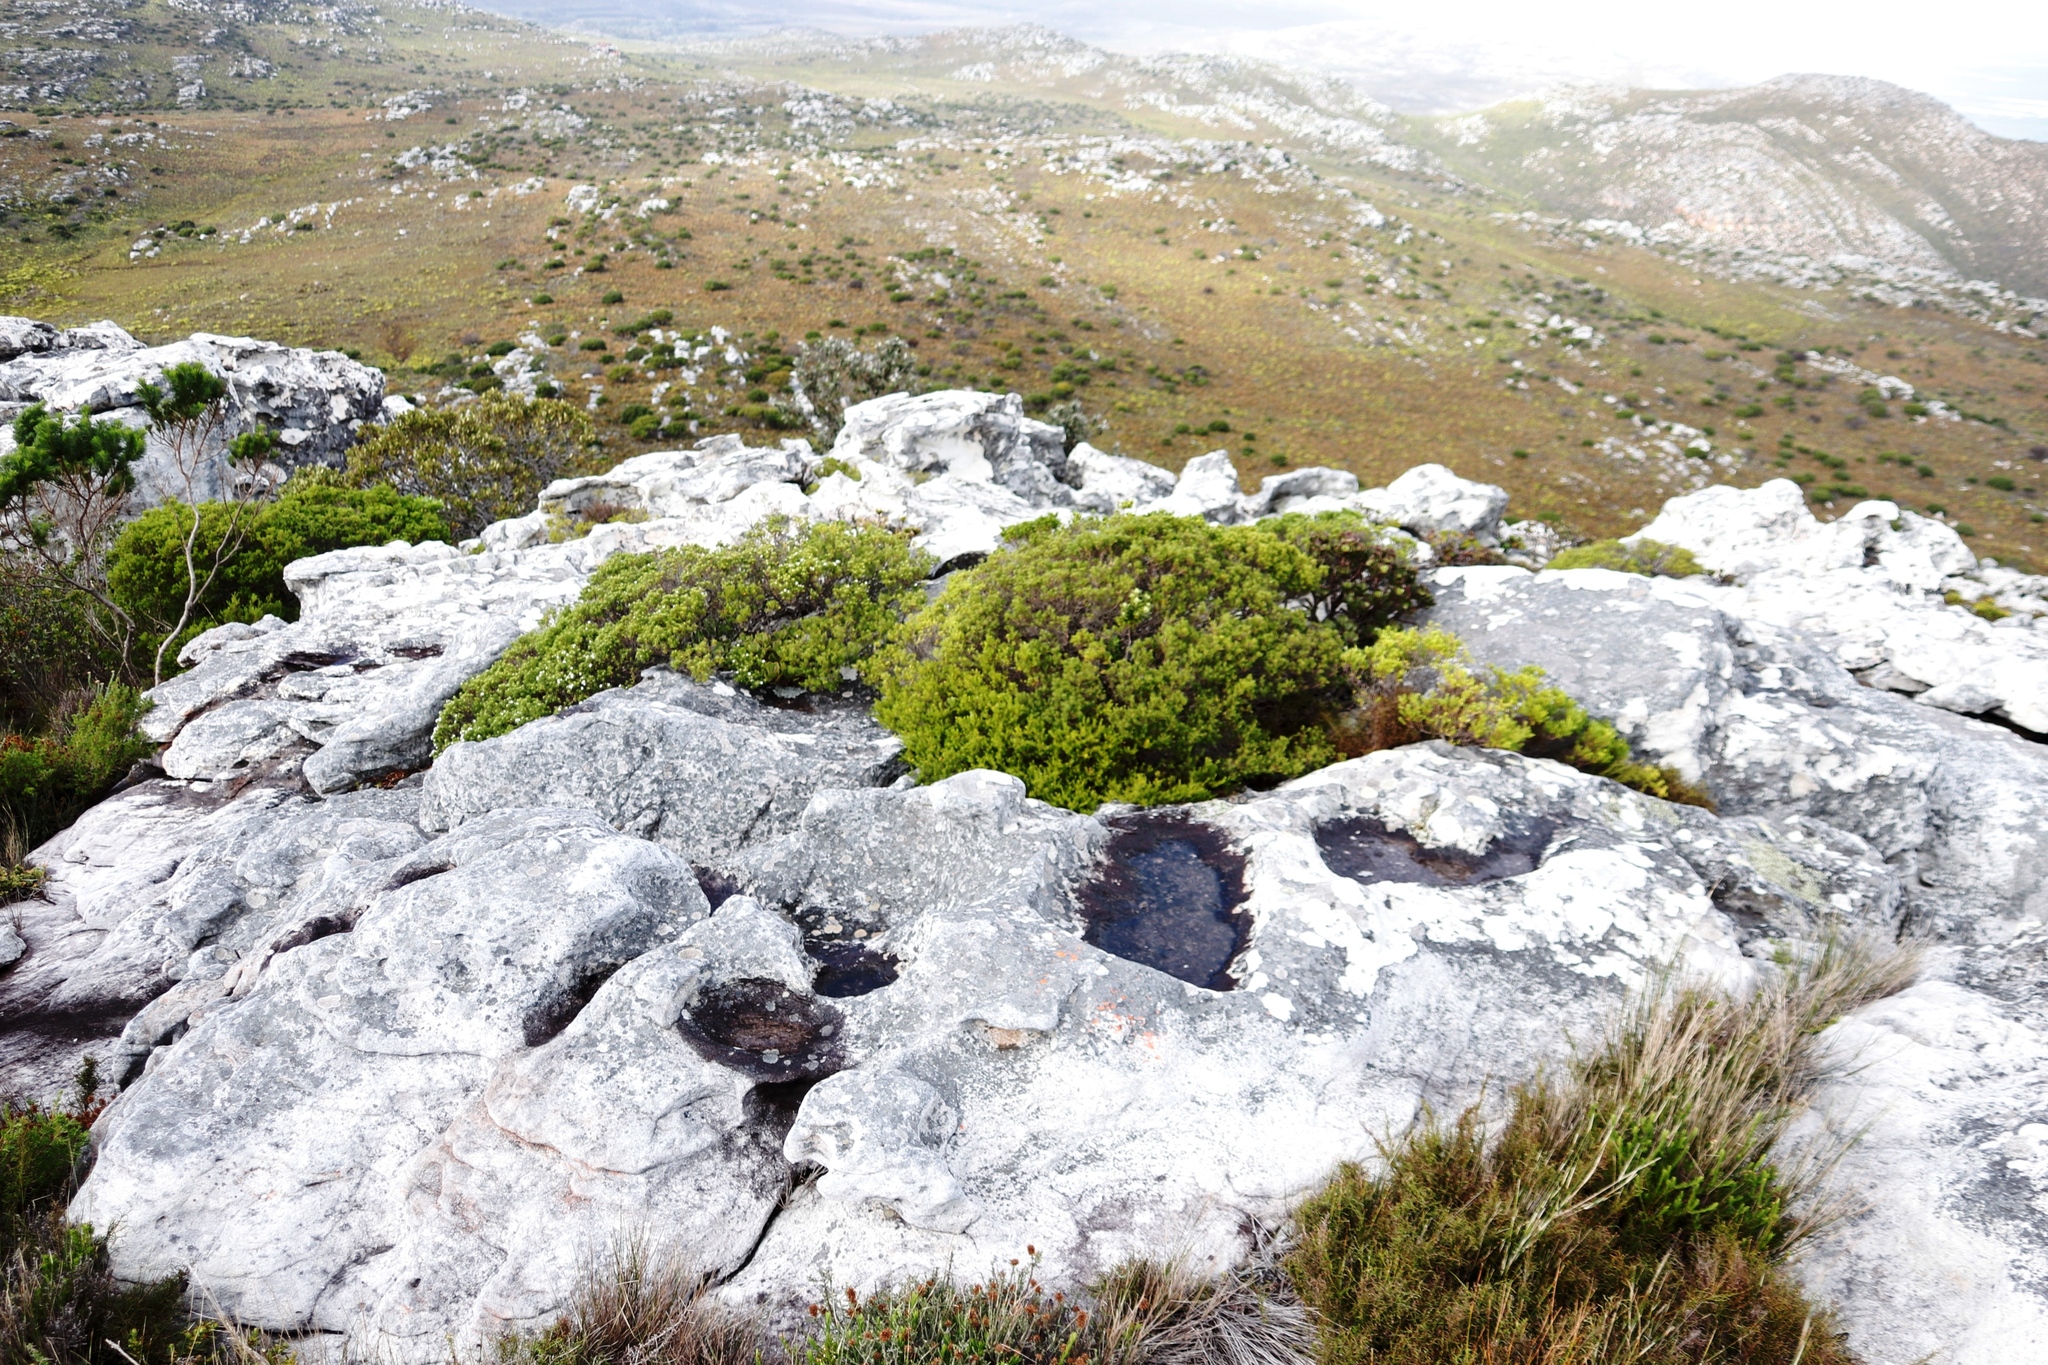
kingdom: Plantae
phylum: Tracheophyta
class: Magnoliopsida
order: Sapindales
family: Rutaceae
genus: Coleonema
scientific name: Coleonema album
